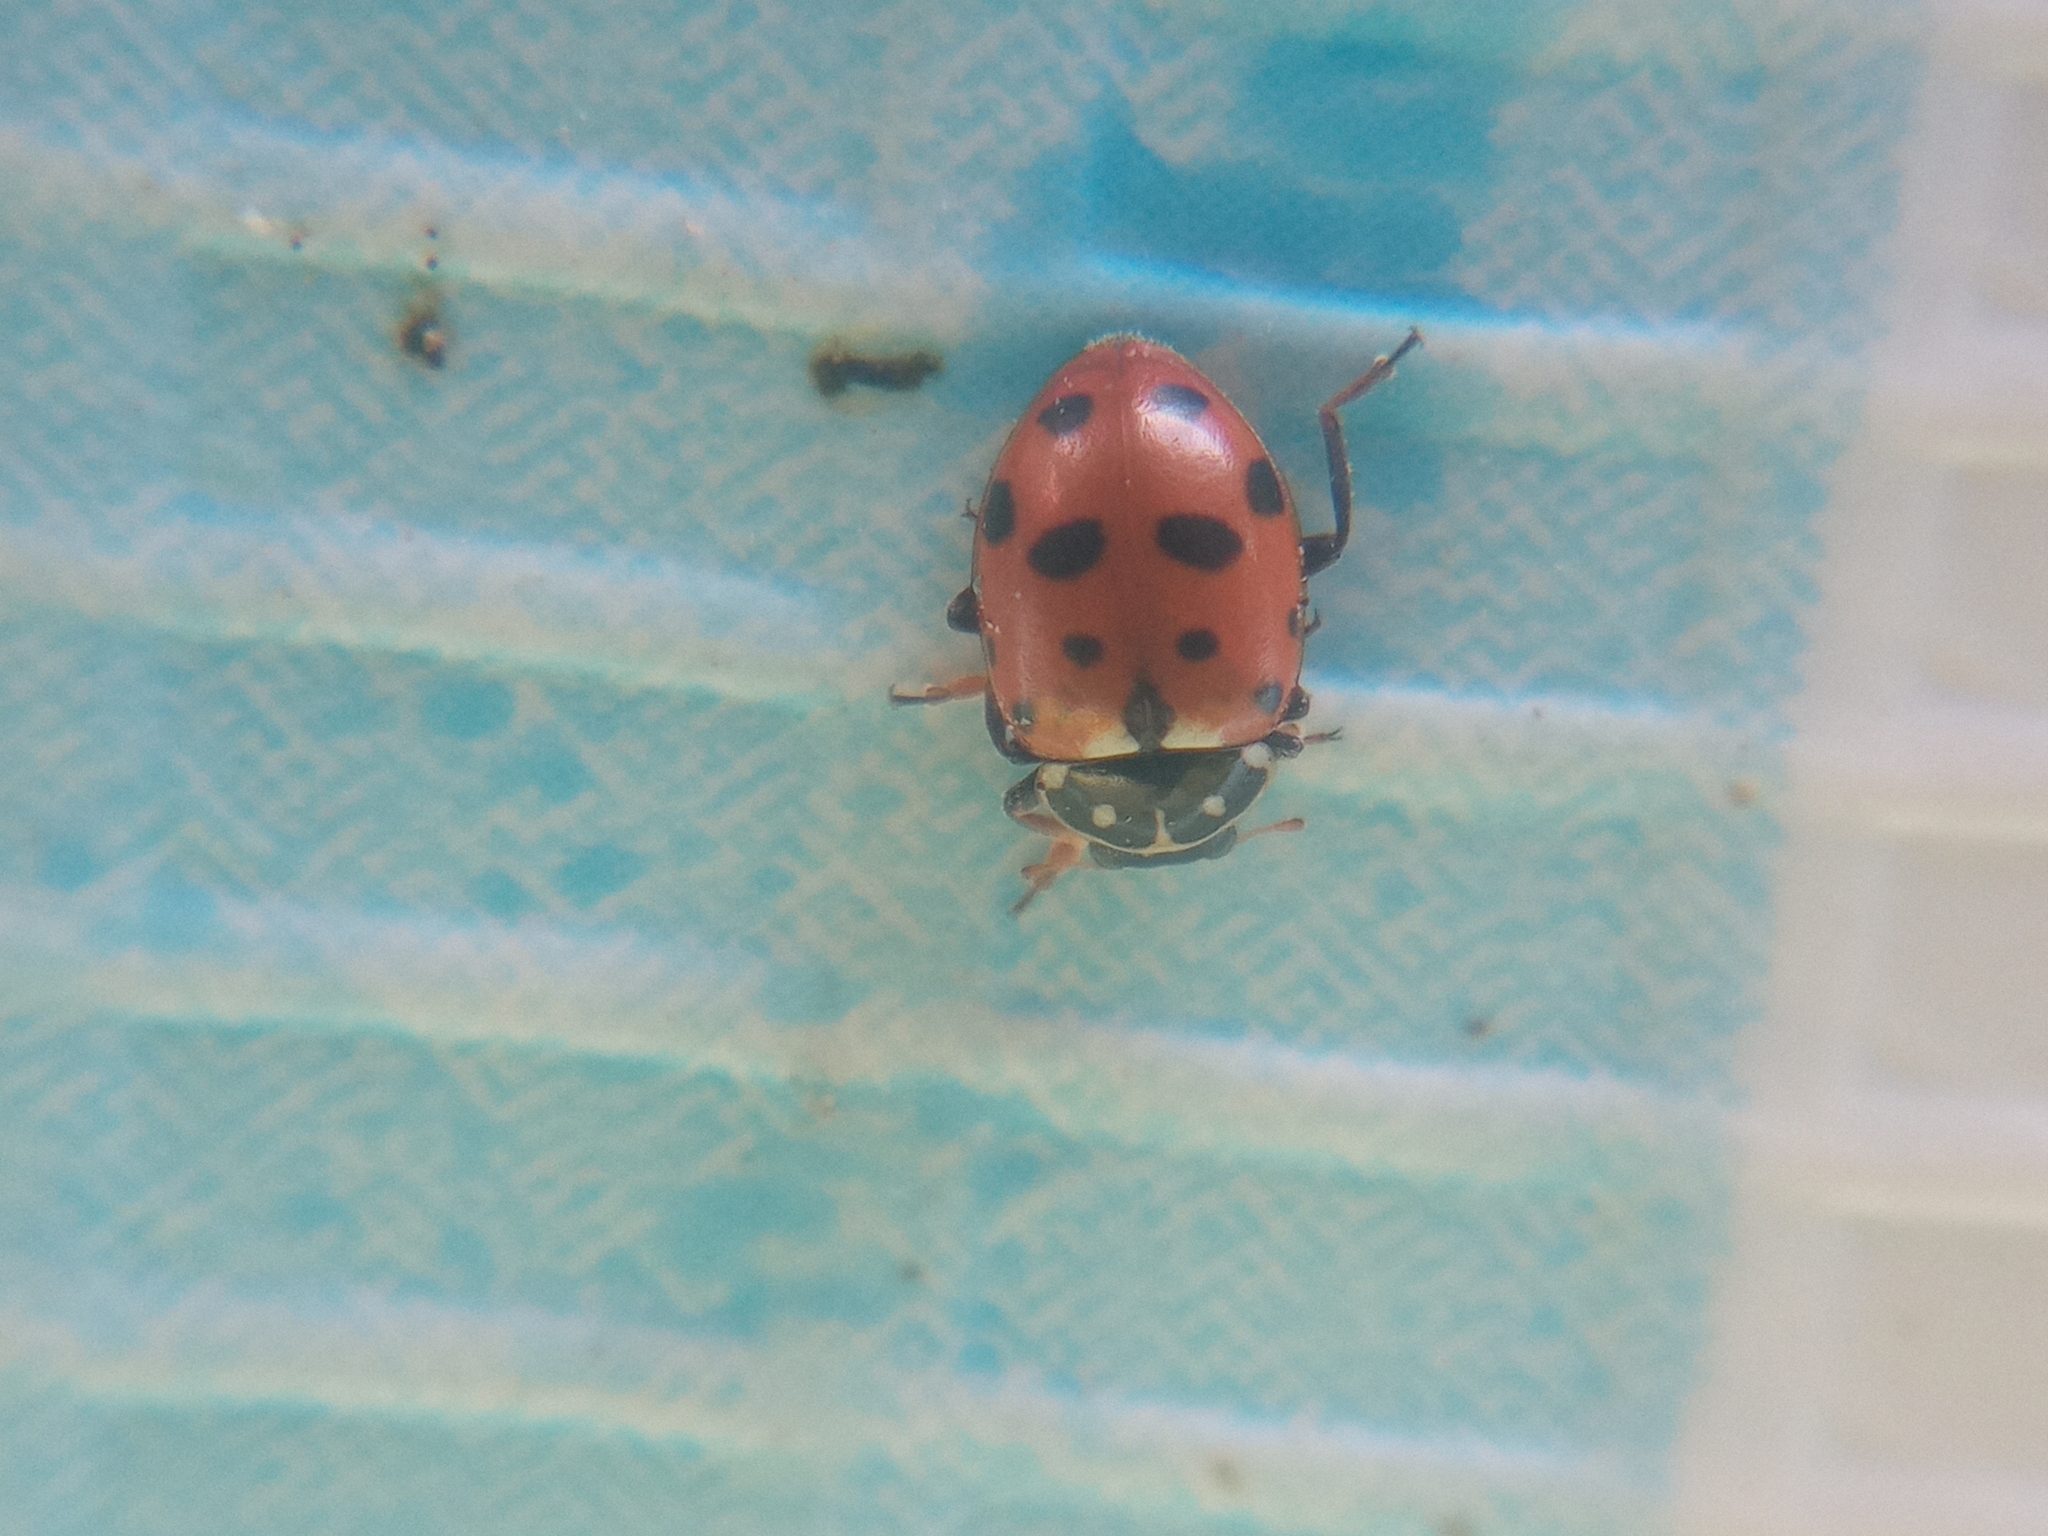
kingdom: Animalia
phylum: Arthropoda
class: Insecta
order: Coleoptera
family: Coccinellidae
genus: Hippodamia
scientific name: Hippodamia variegata
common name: Ladybird beetle
